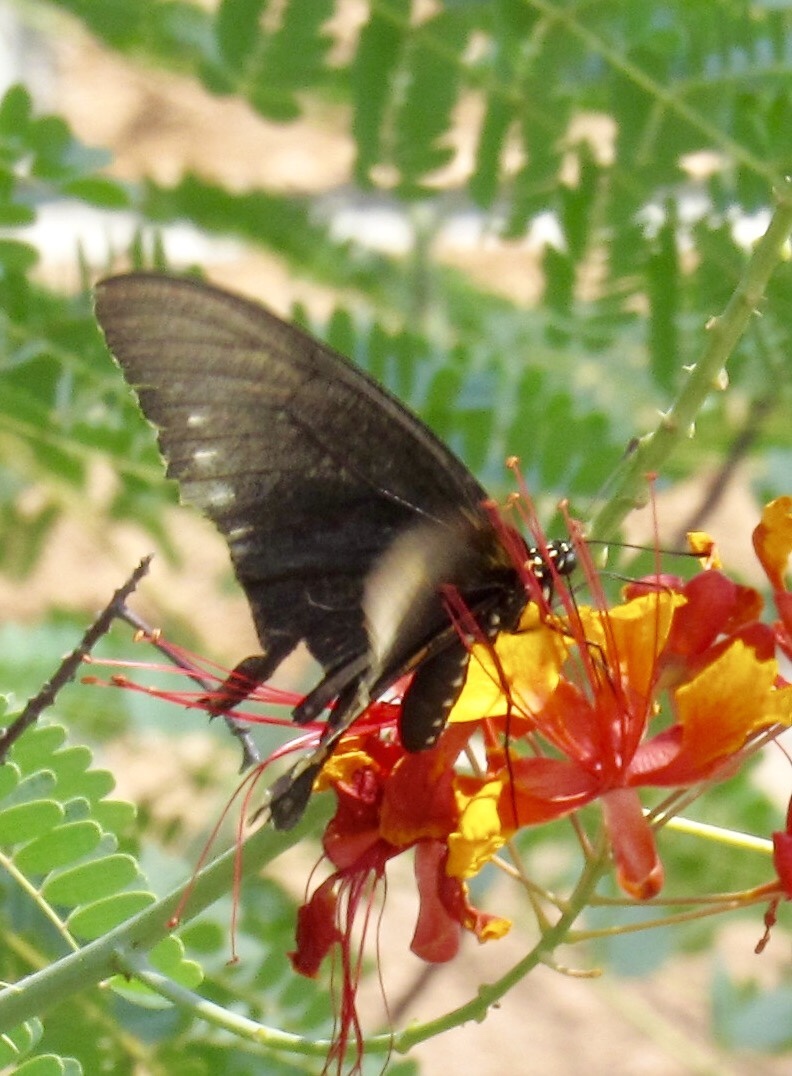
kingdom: Animalia
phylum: Arthropoda
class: Insecta
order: Lepidoptera
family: Papilionidae
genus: Battus
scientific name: Battus philenor
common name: Pipevine swallowtail
